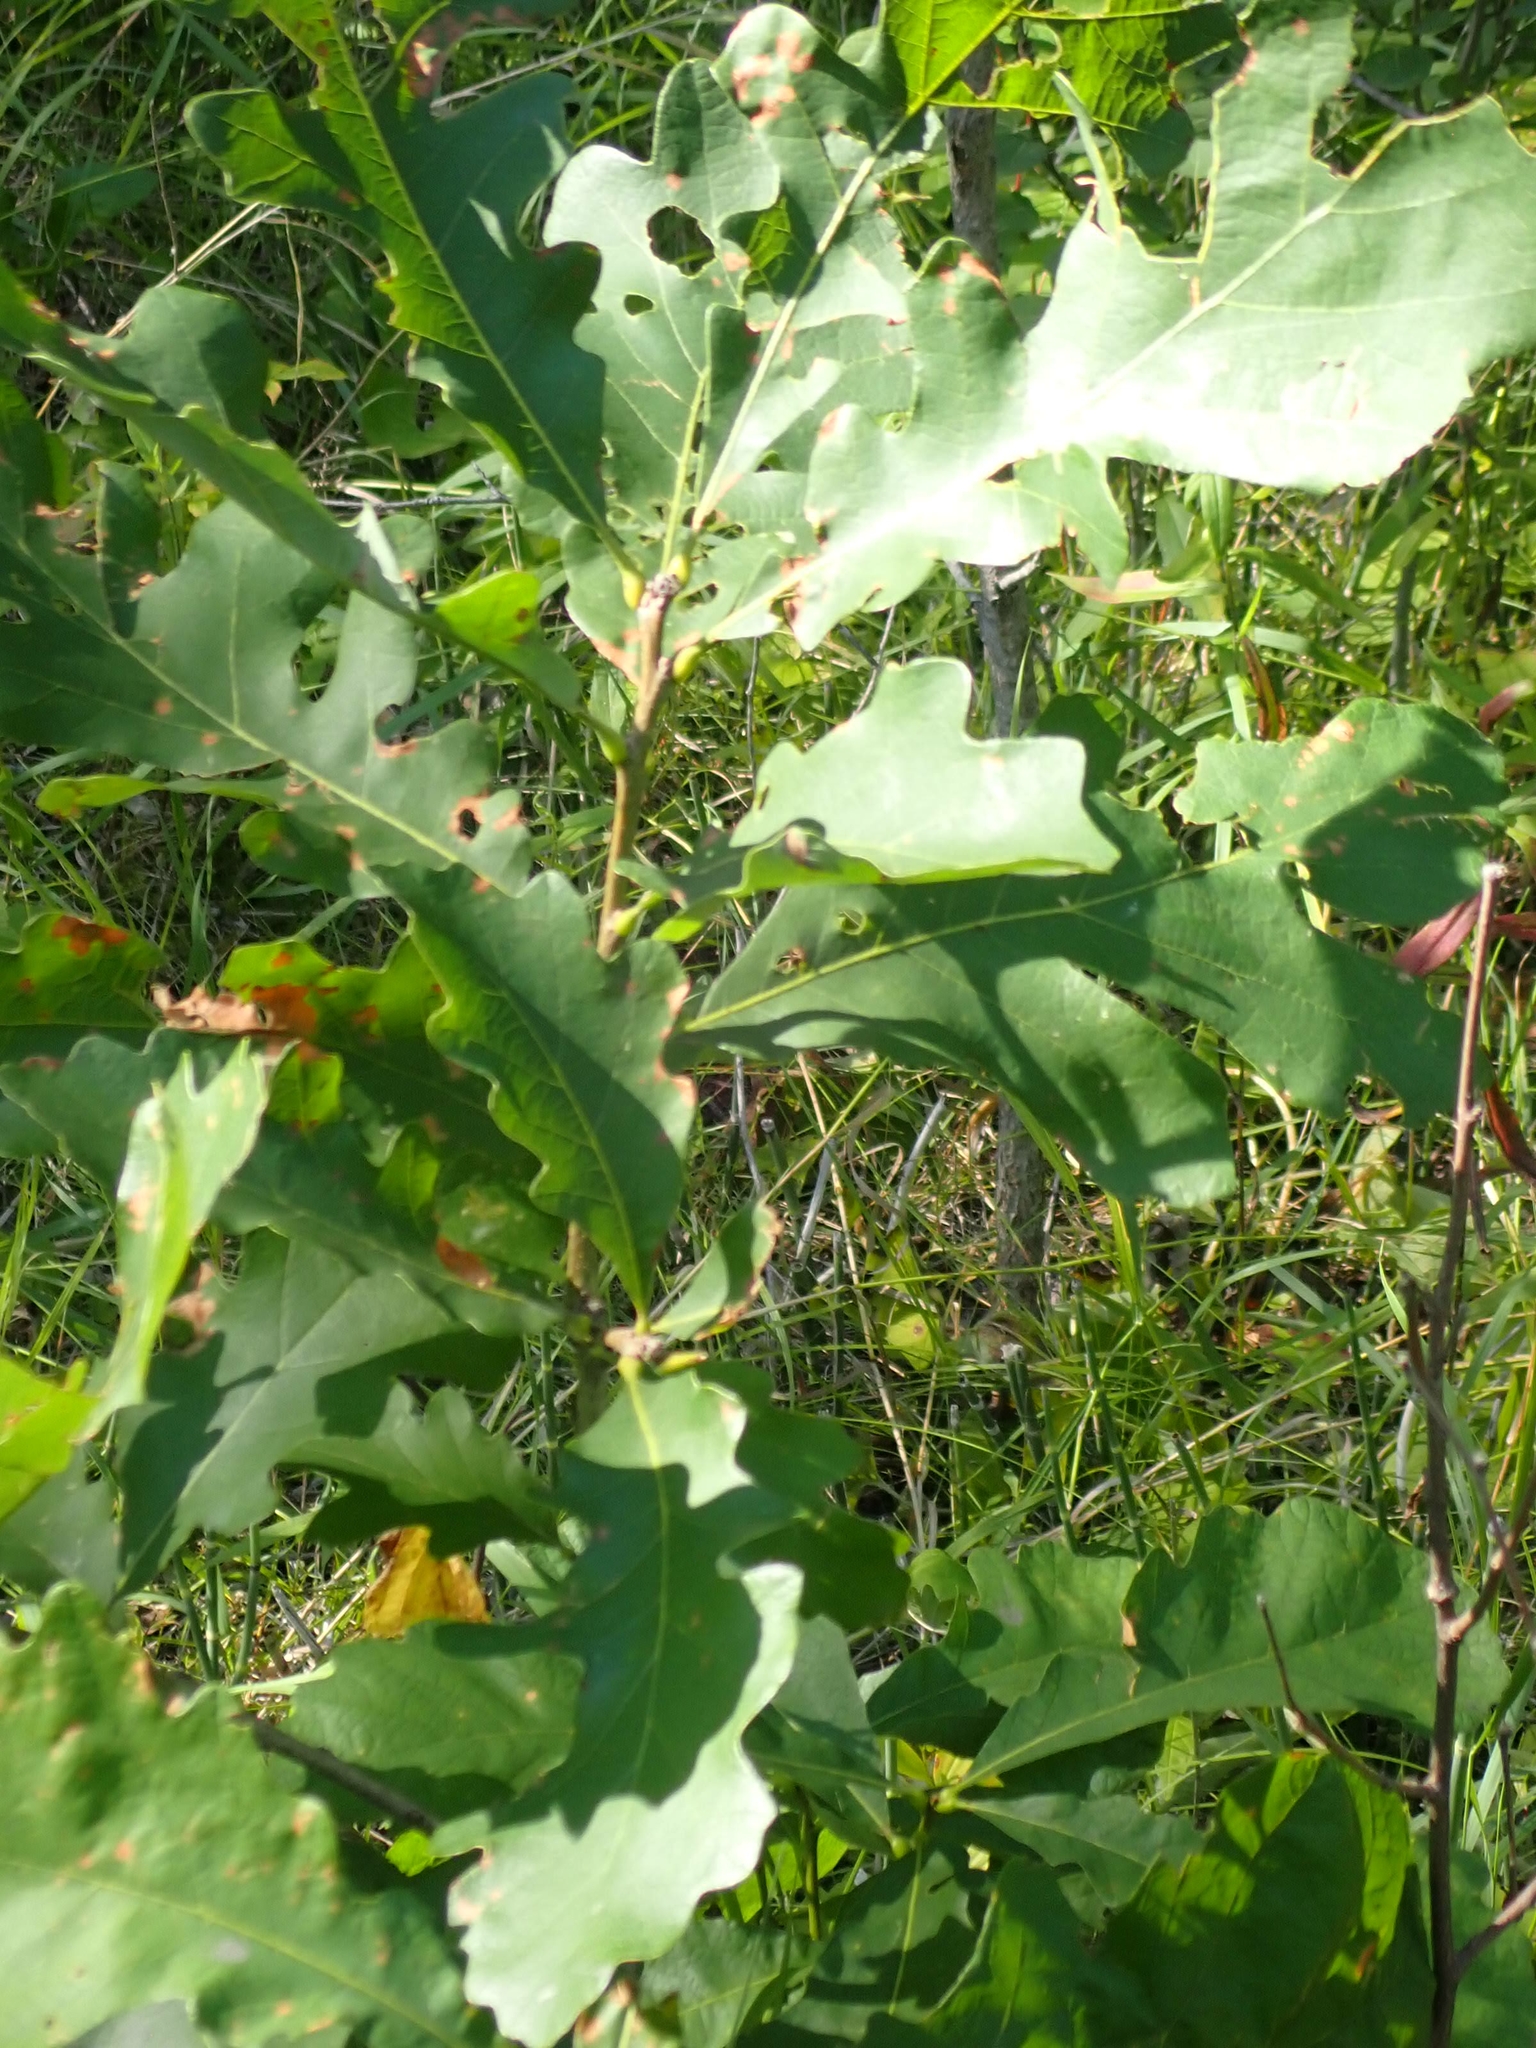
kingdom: Plantae
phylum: Tracheophyta
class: Magnoliopsida
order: Fagales
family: Fagaceae
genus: Quercus
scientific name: Quercus macrocarpa
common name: Bur oak
